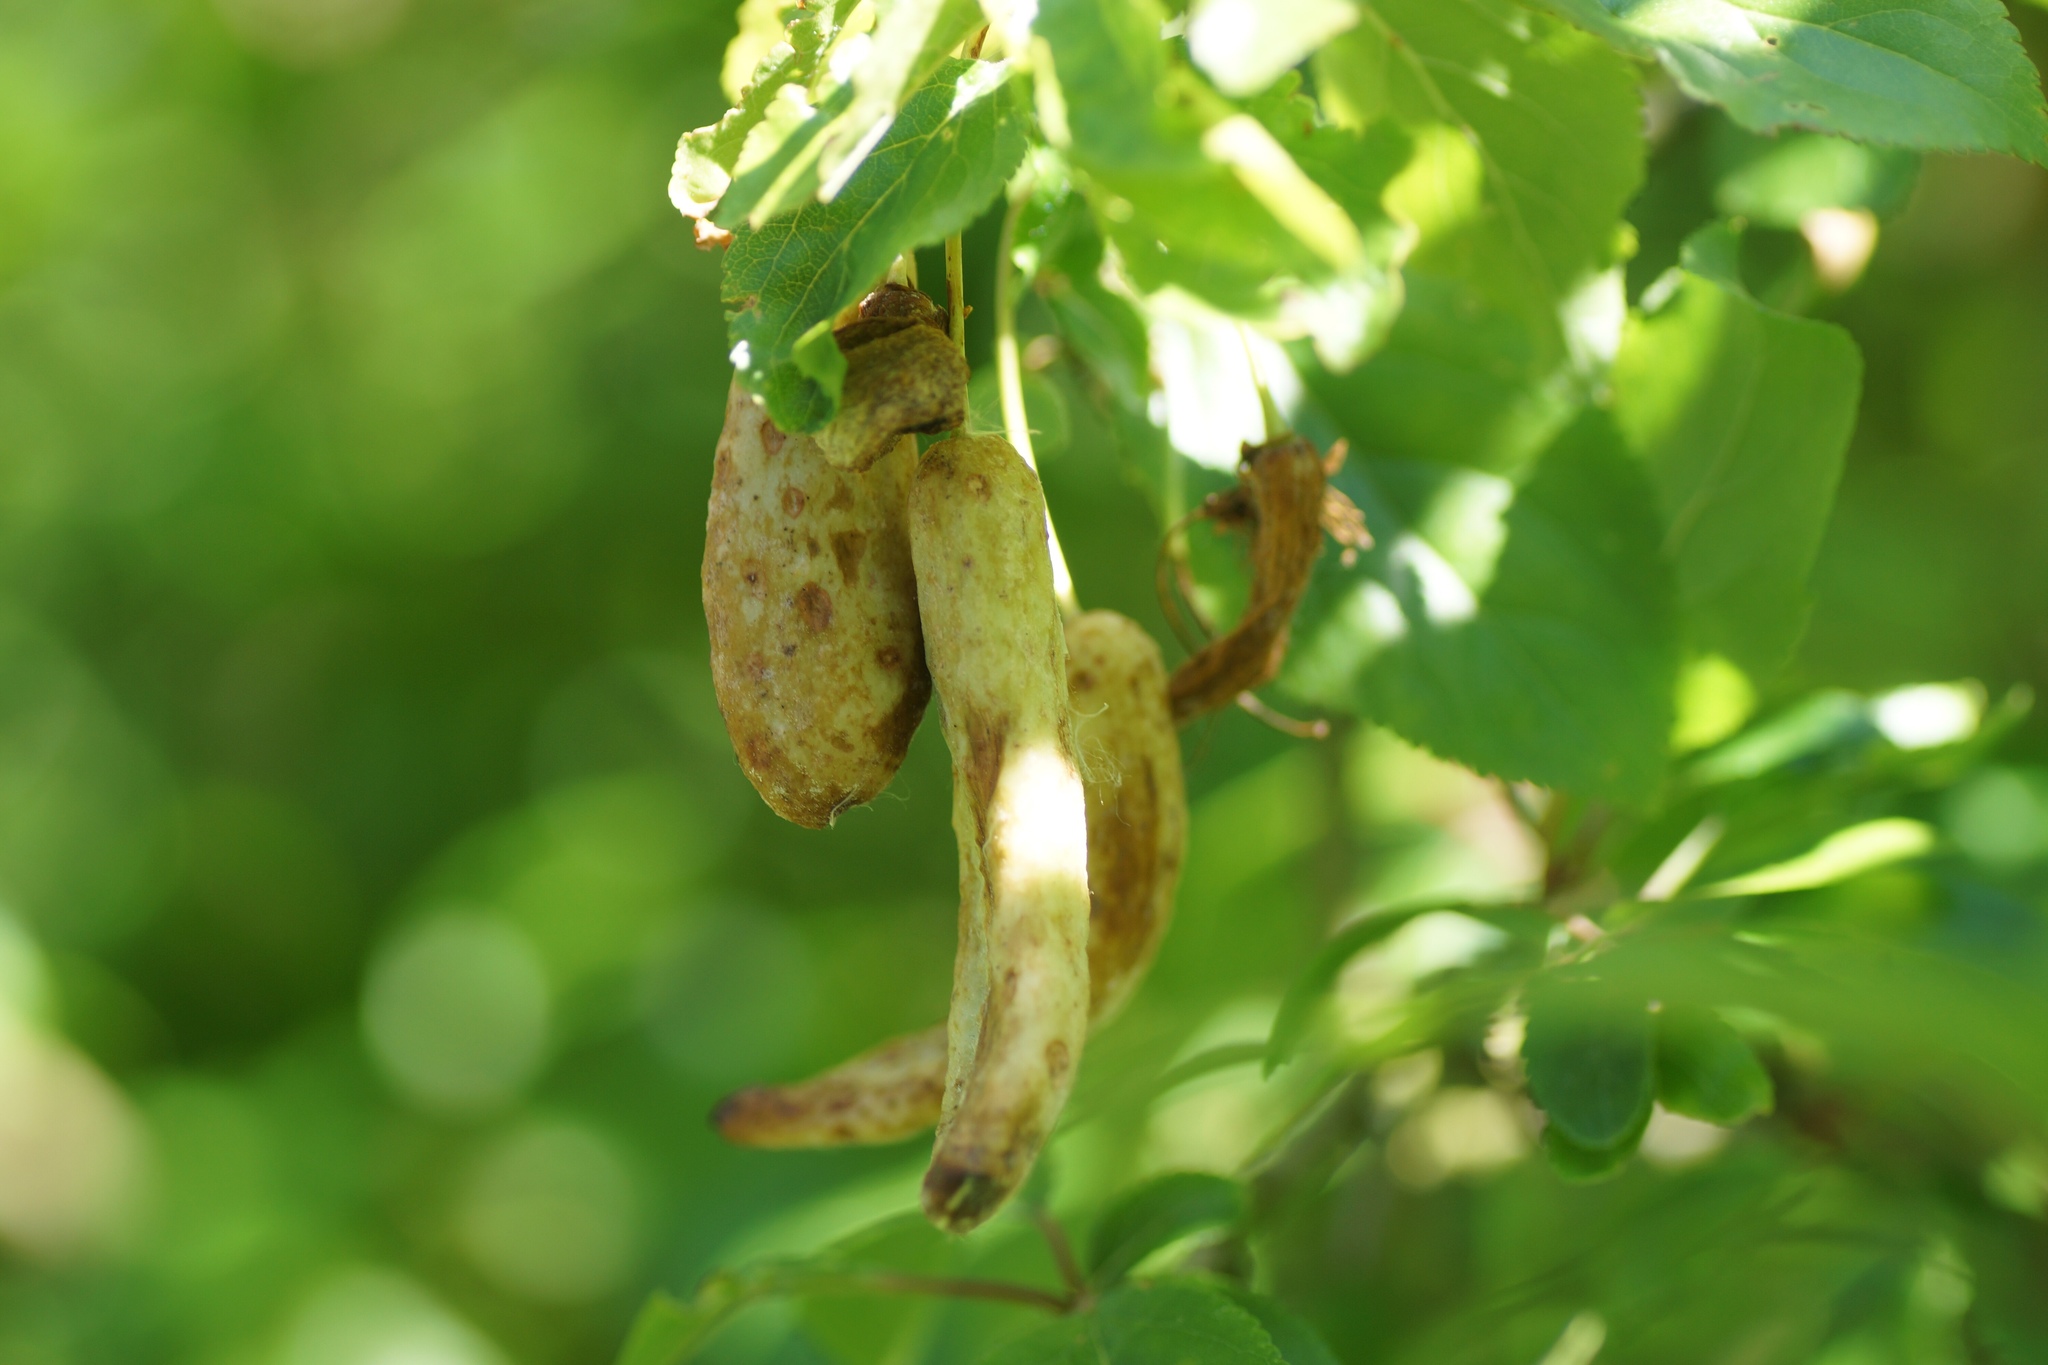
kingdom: Fungi
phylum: Ascomycota
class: Taphrinomycetes
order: Taphrinales
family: Taphrinaceae
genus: Taphrina
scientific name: Taphrina pruni
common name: Pocket plum
